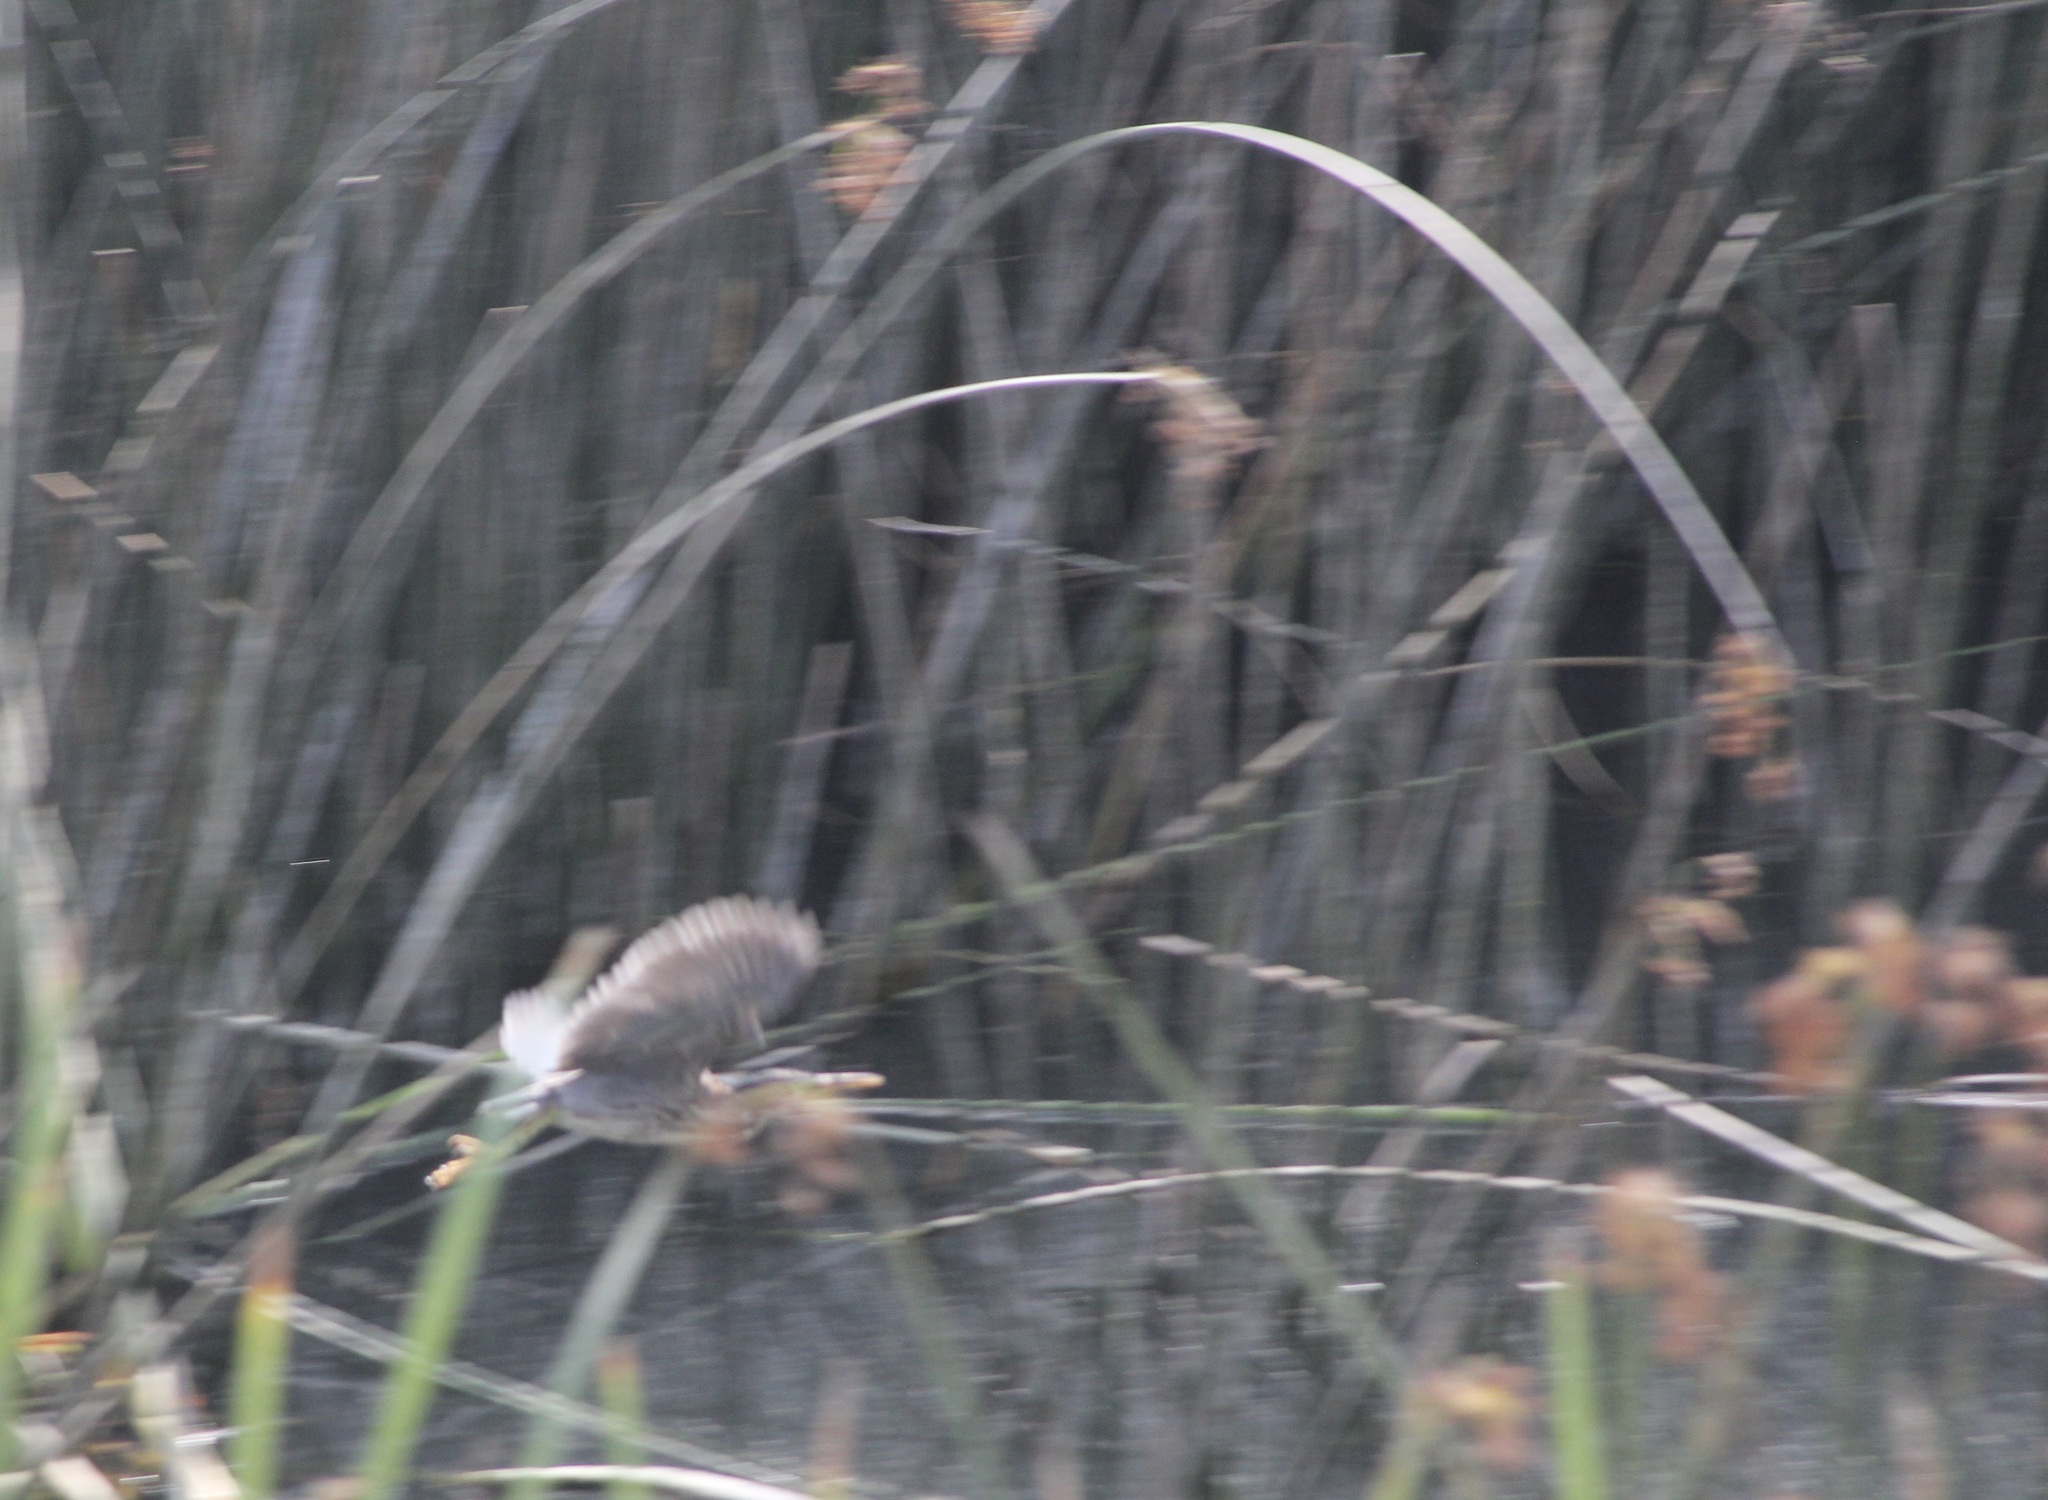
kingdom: Animalia
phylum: Chordata
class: Aves
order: Pelecaniformes
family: Ardeidae
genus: Butorides
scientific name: Butorides virescens
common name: Green heron
